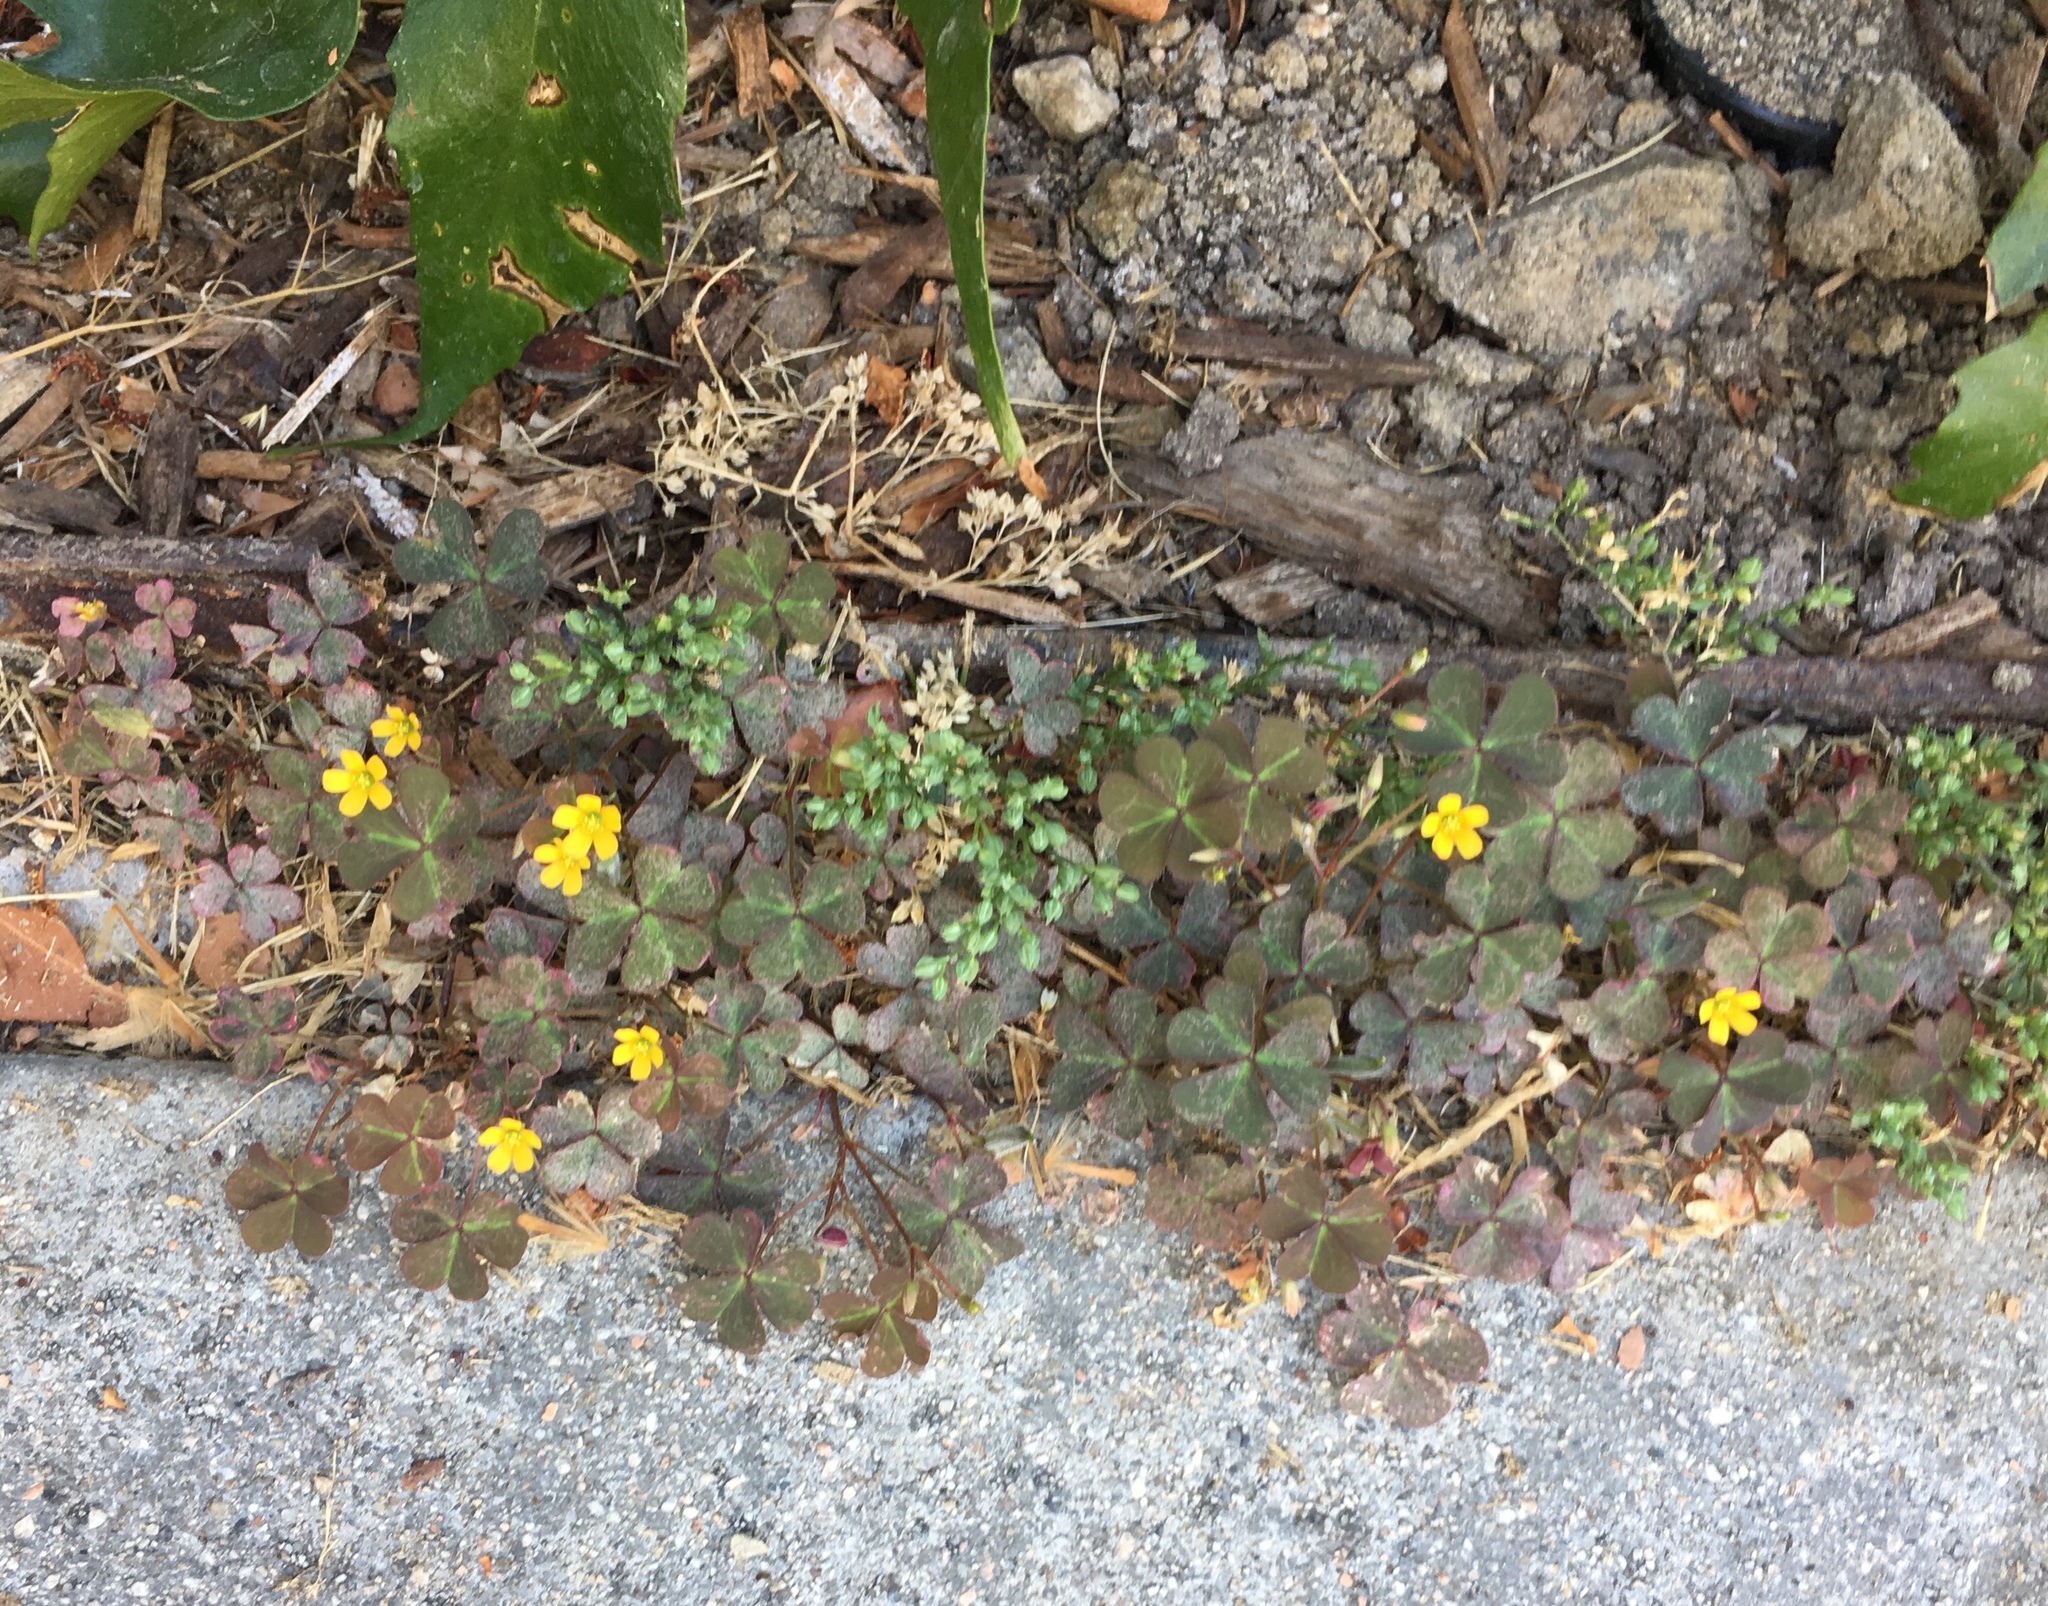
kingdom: Plantae
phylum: Tracheophyta
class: Magnoliopsida
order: Oxalidales
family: Oxalidaceae
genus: Oxalis
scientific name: Oxalis corniculata
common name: Procumbent yellow-sorrel
